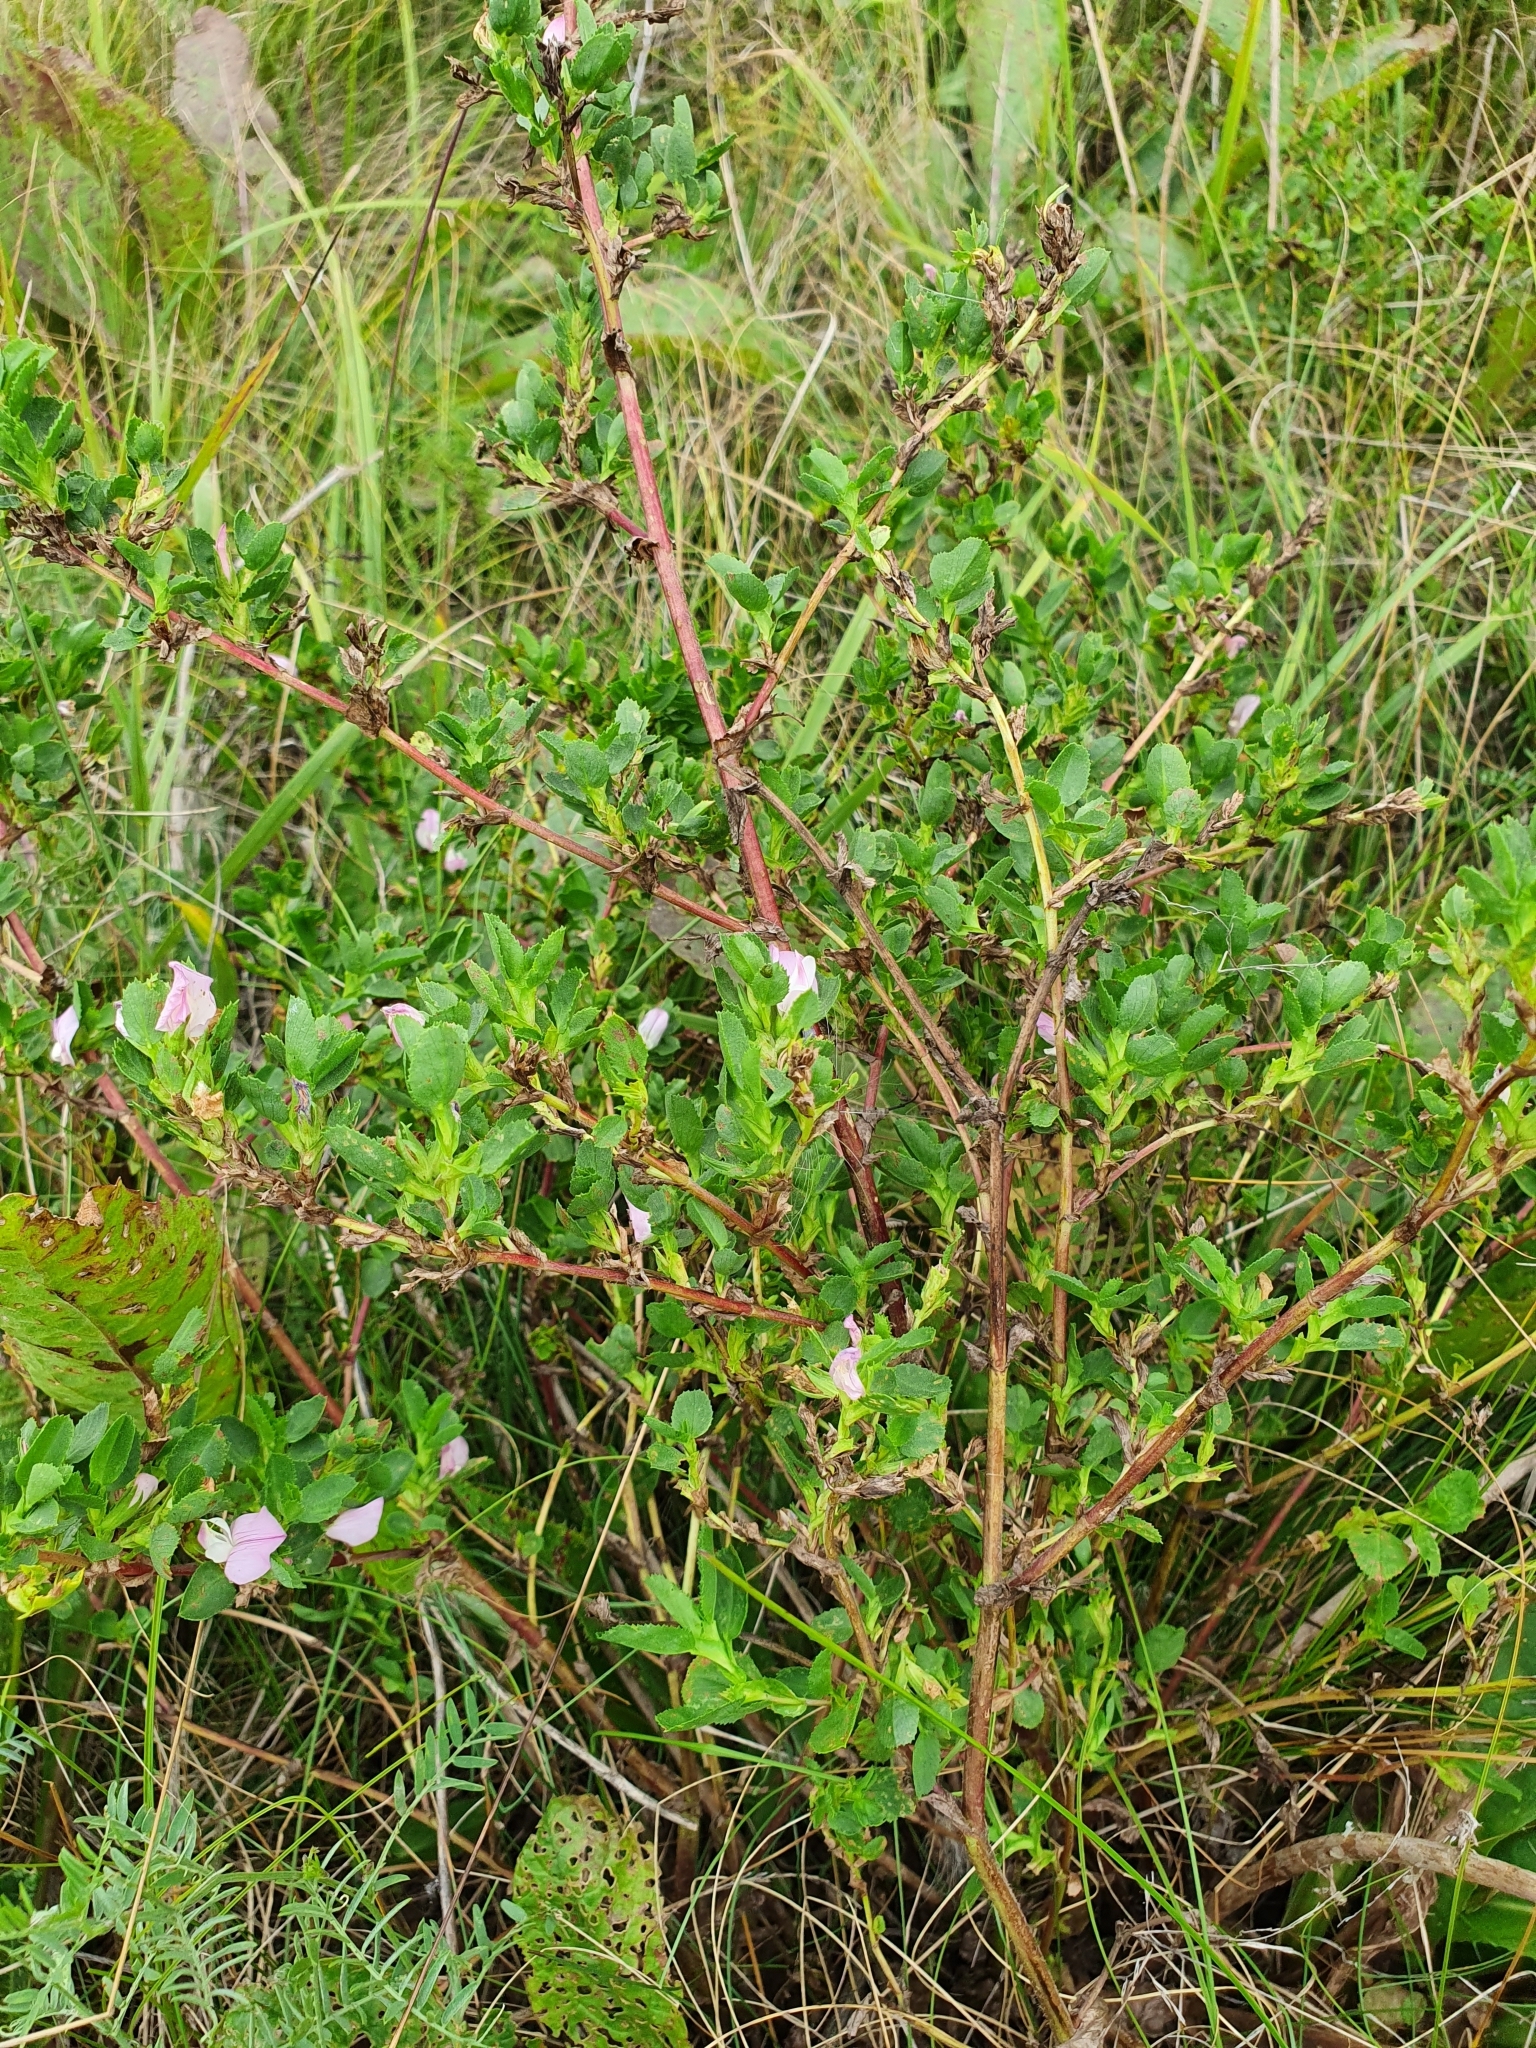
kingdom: Plantae
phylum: Tracheophyta
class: Magnoliopsida
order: Fabales
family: Fabaceae
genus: Ononis
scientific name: Ononis arvensis
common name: Field restharrow
